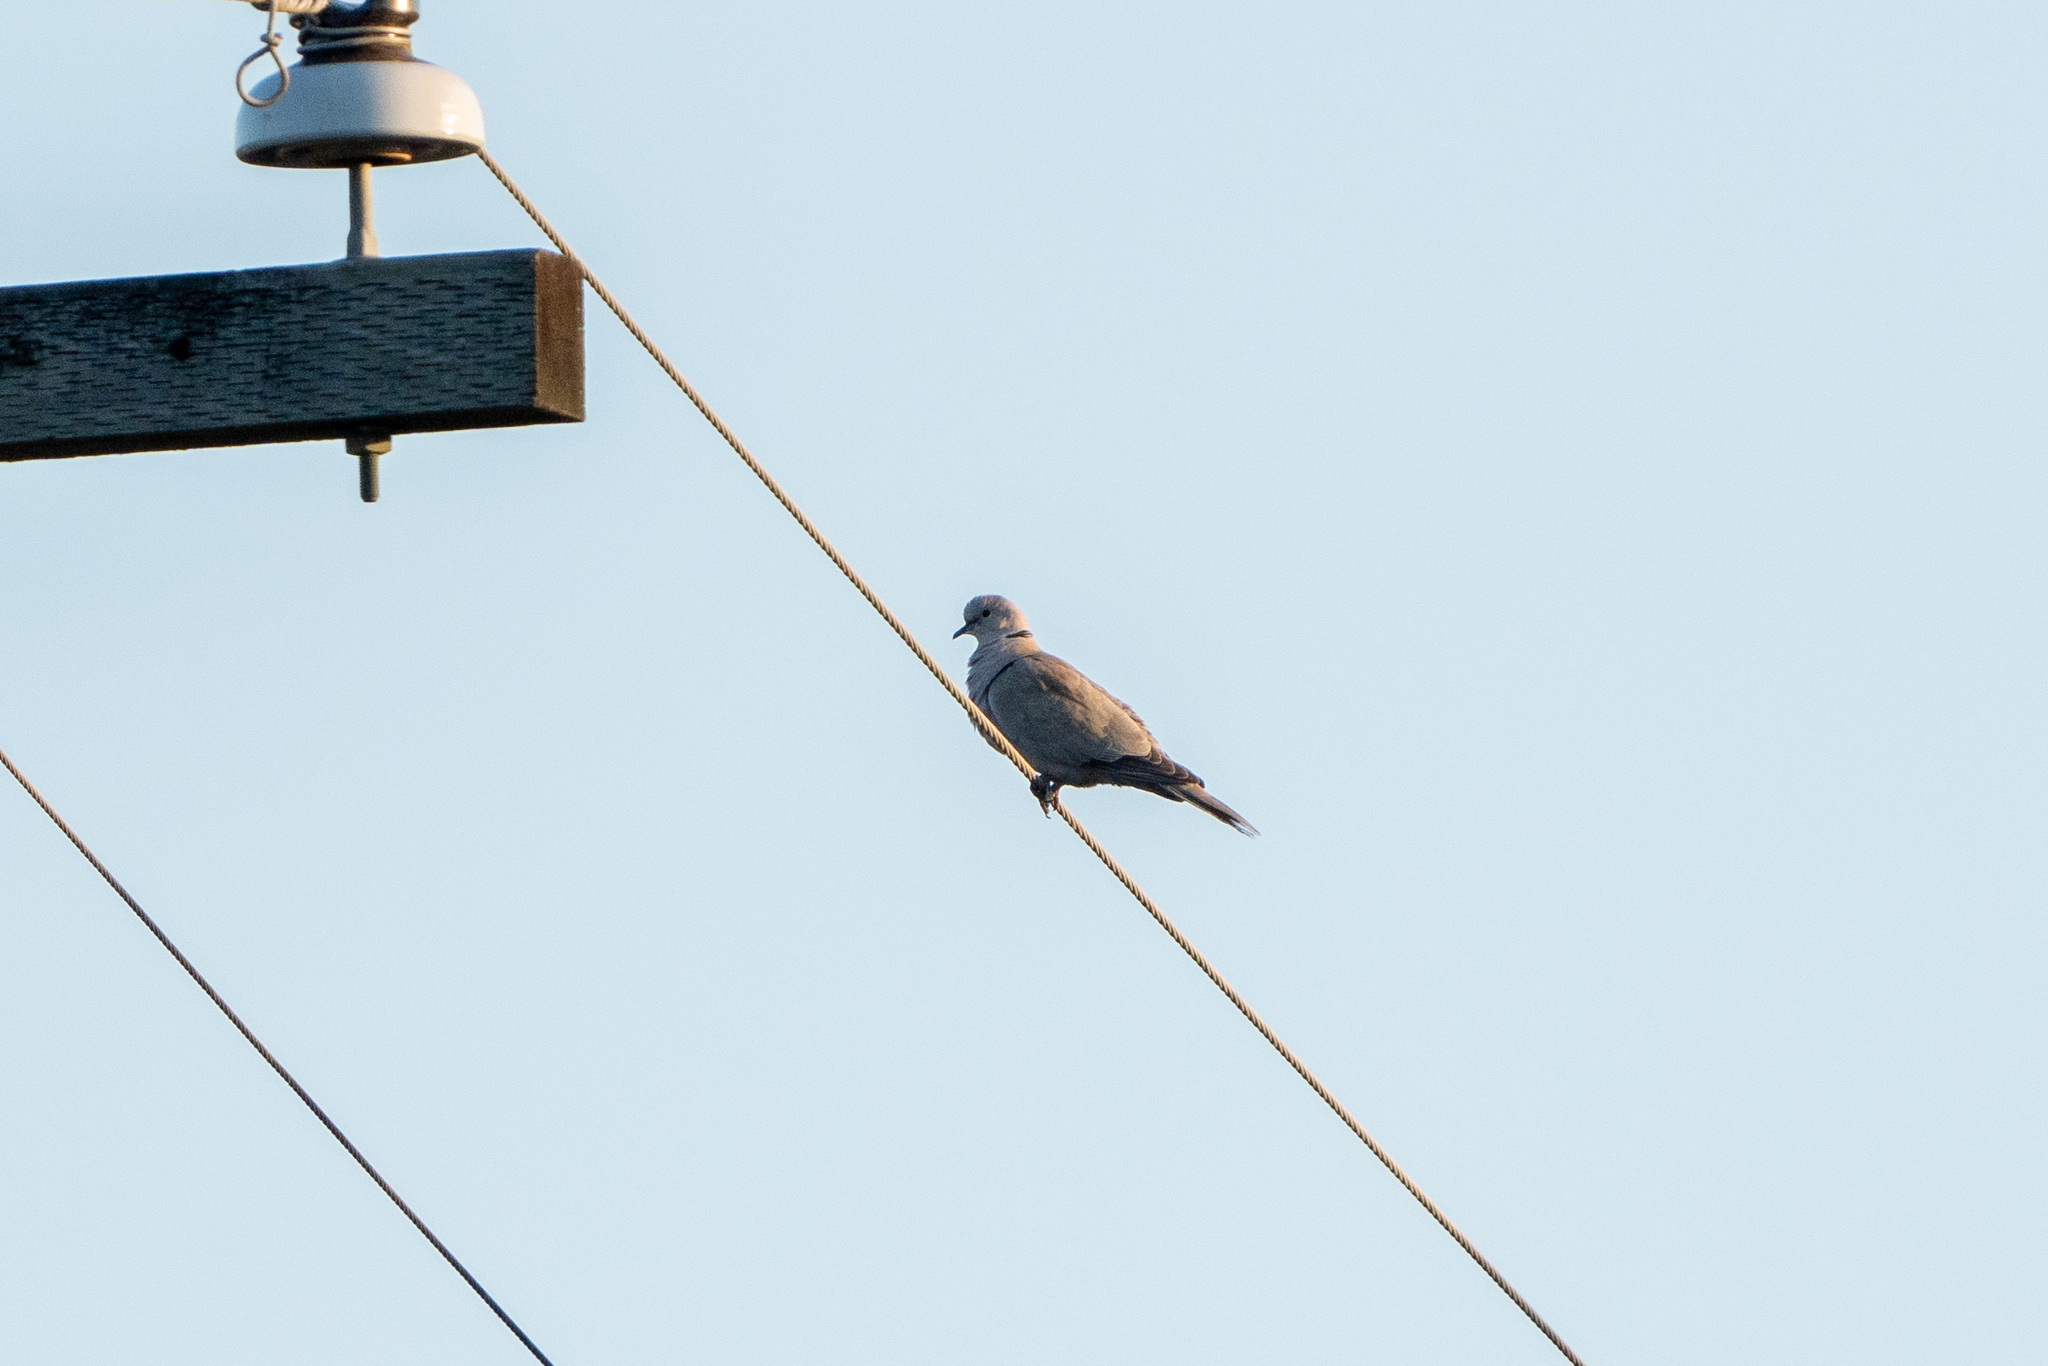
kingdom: Animalia
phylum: Chordata
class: Aves
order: Columbiformes
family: Columbidae
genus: Streptopelia
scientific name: Streptopelia decaocto
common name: Eurasian collared dove
